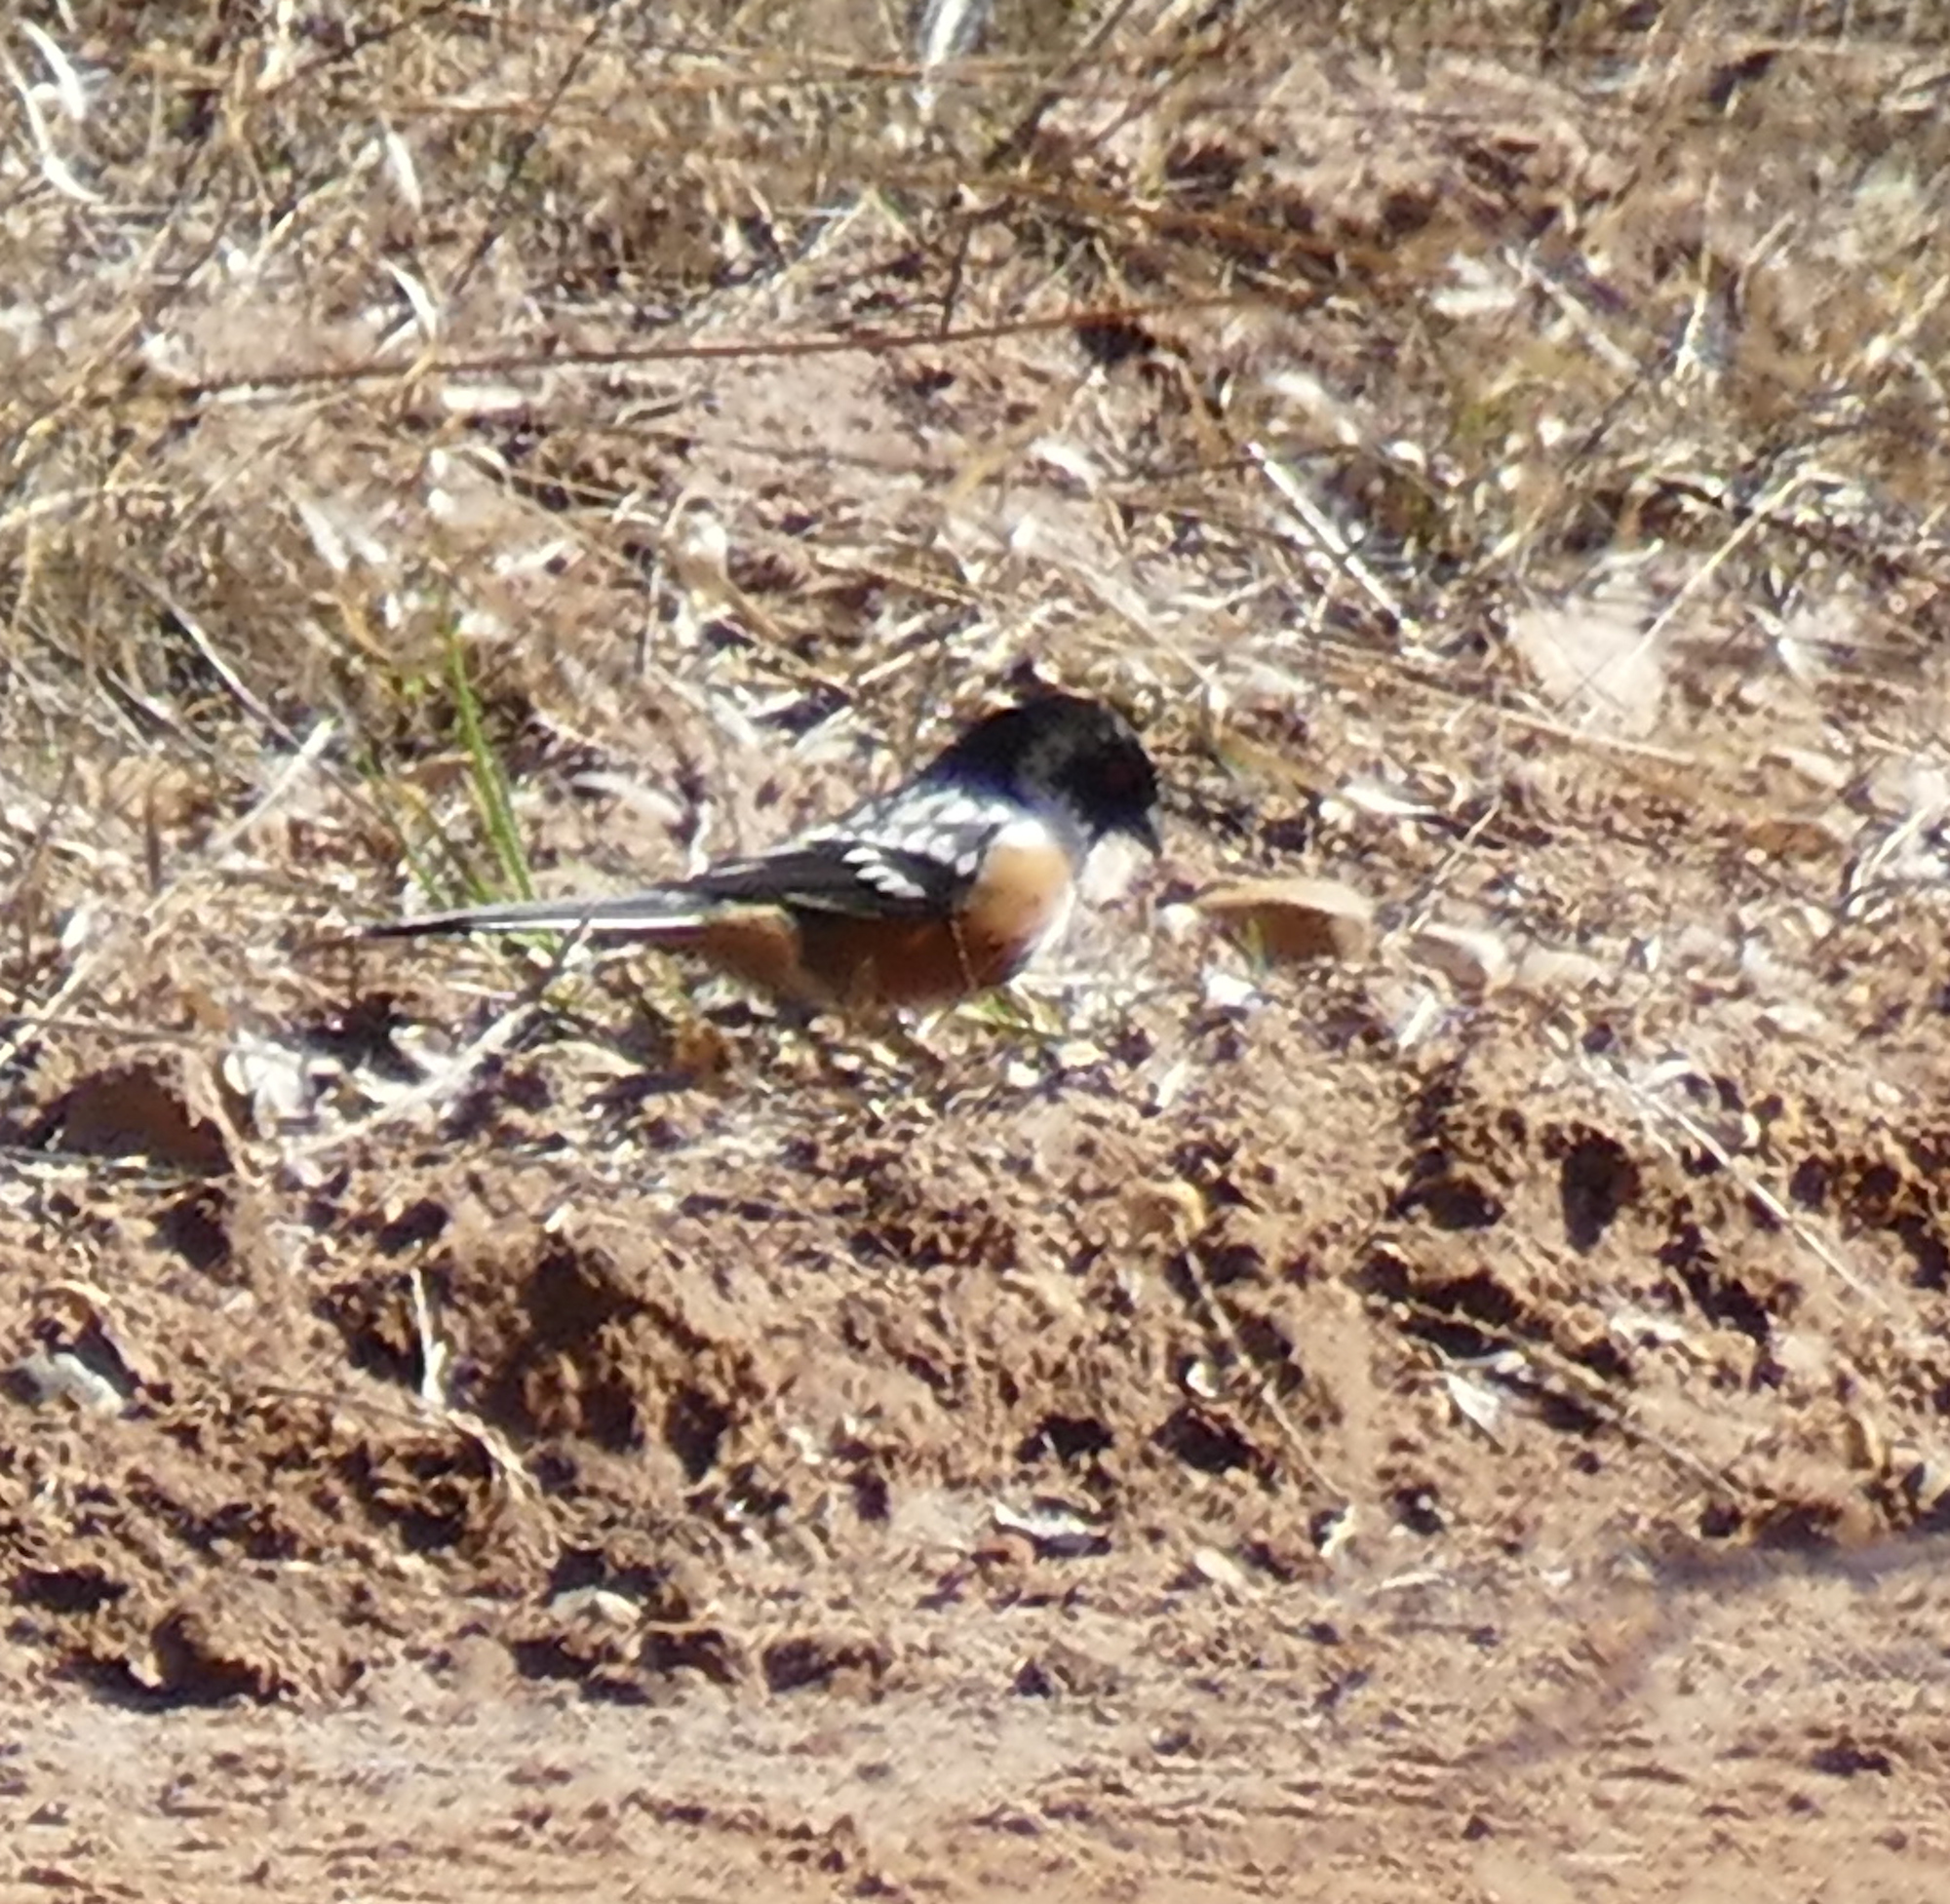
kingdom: Animalia
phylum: Chordata
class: Aves
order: Passeriformes
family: Passerellidae
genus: Pipilo
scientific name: Pipilo maculatus
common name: Spotted towhee
